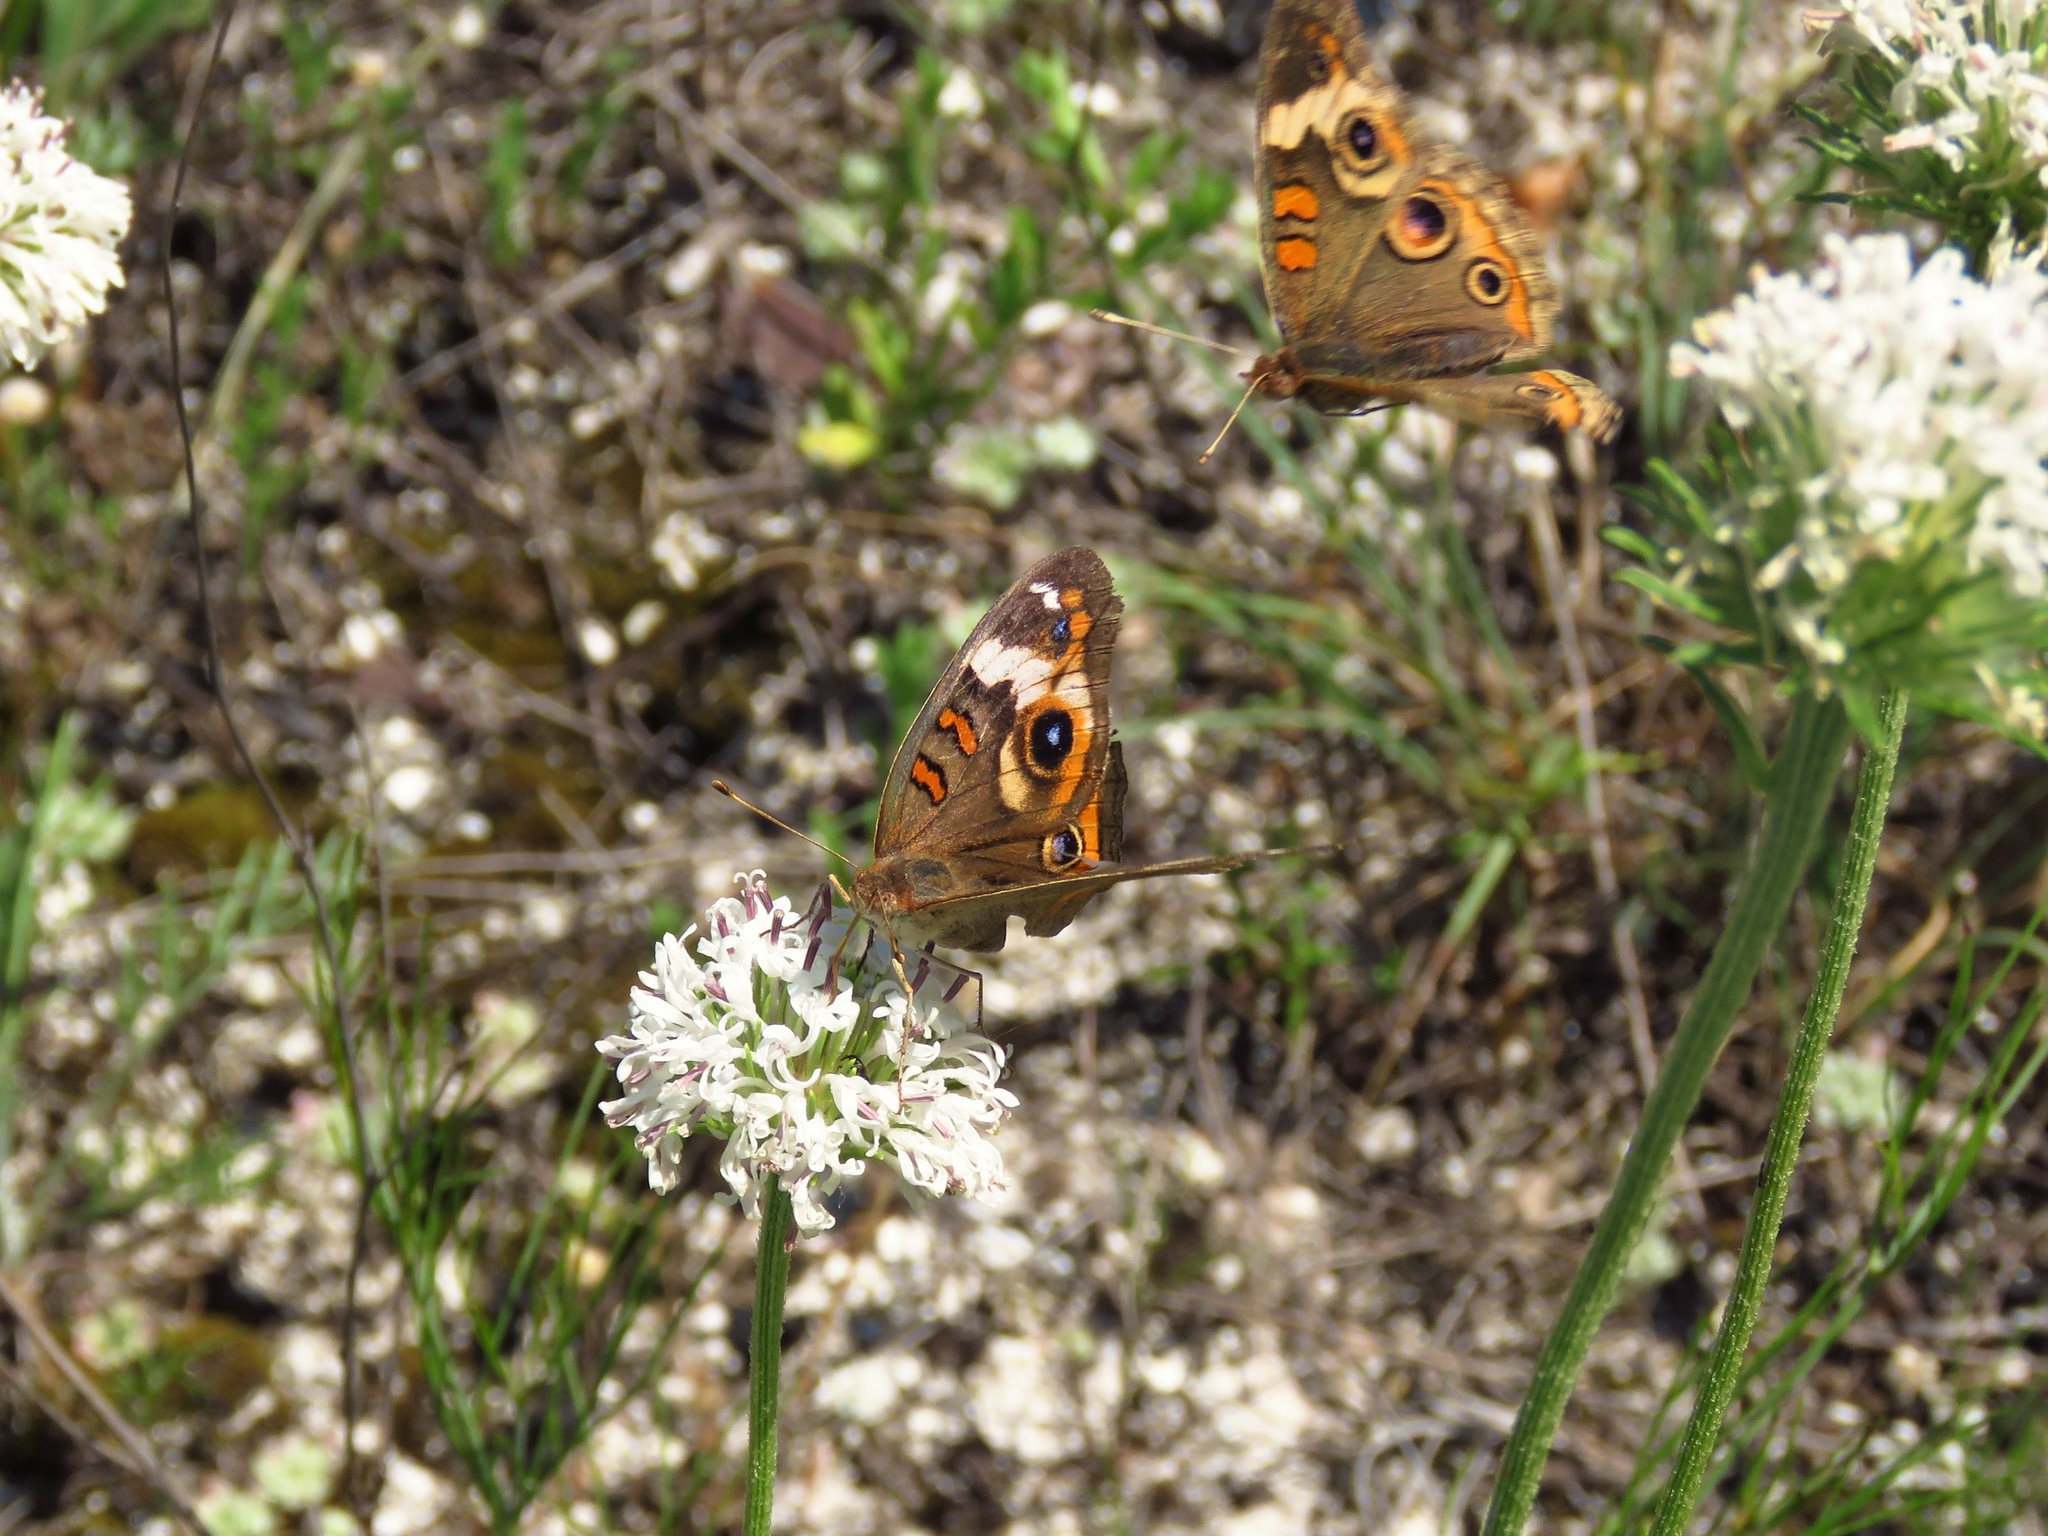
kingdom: Animalia
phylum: Arthropoda
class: Insecta
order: Lepidoptera
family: Nymphalidae
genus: Junonia
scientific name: Junonia coenia
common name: Common buckeye
